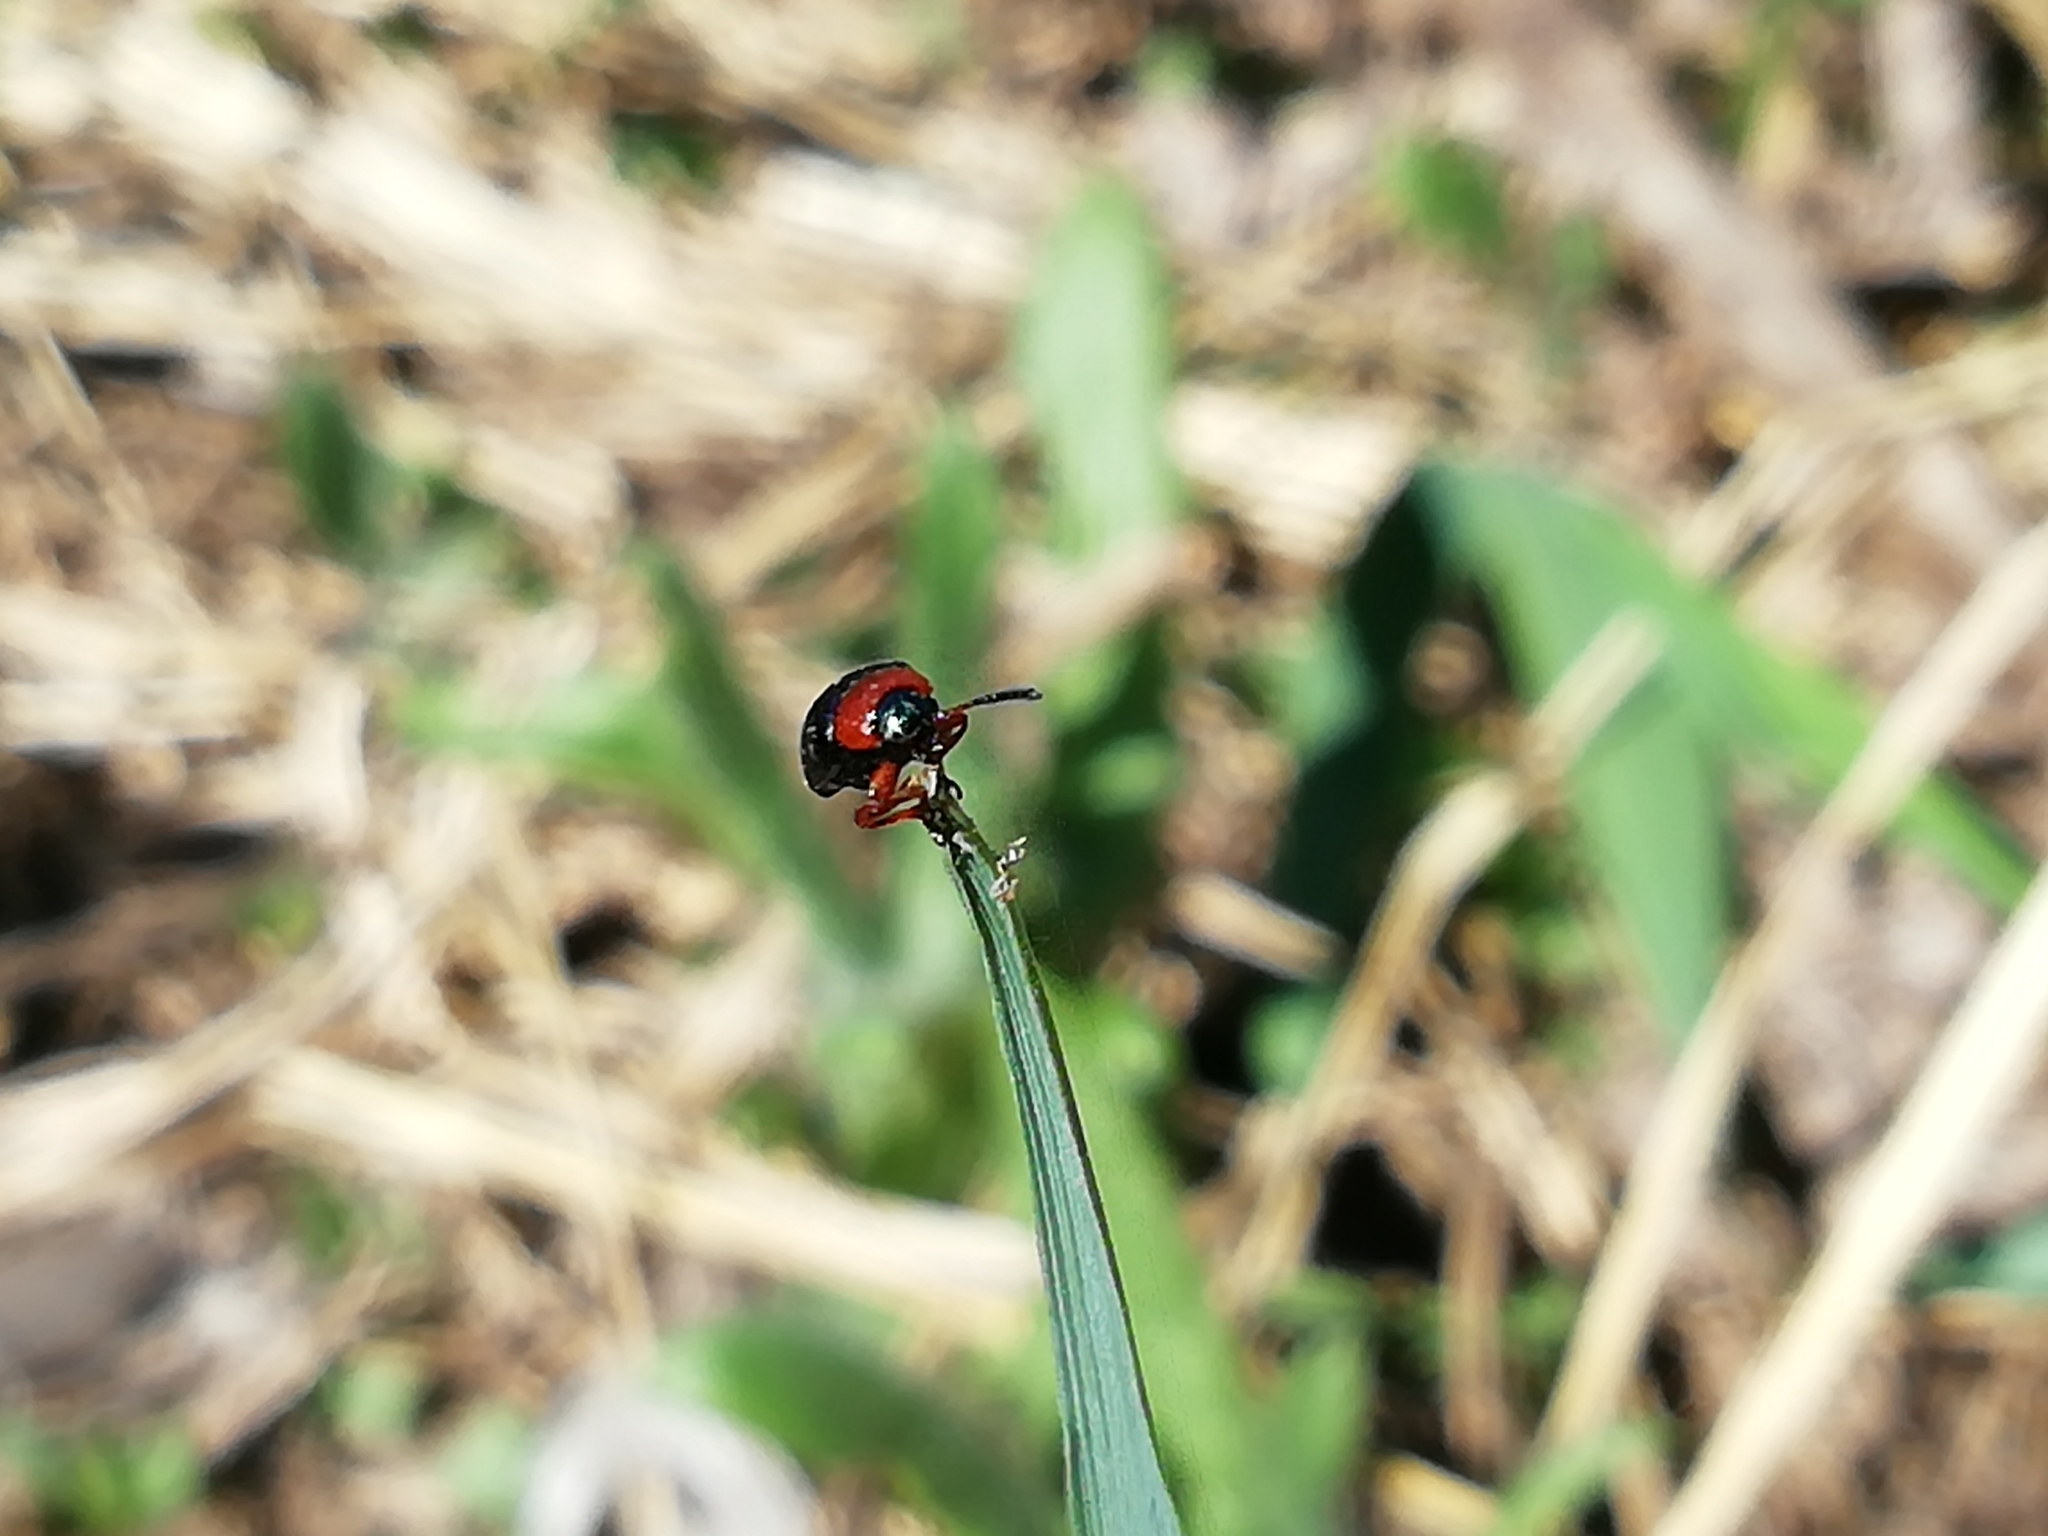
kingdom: Animalia
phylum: Arthropoda
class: Insecta
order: Coleoptera
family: Chrysomelidae
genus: Gastrophysa
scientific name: Gastrophysa polygoni
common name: Knotweed leaf beetle
